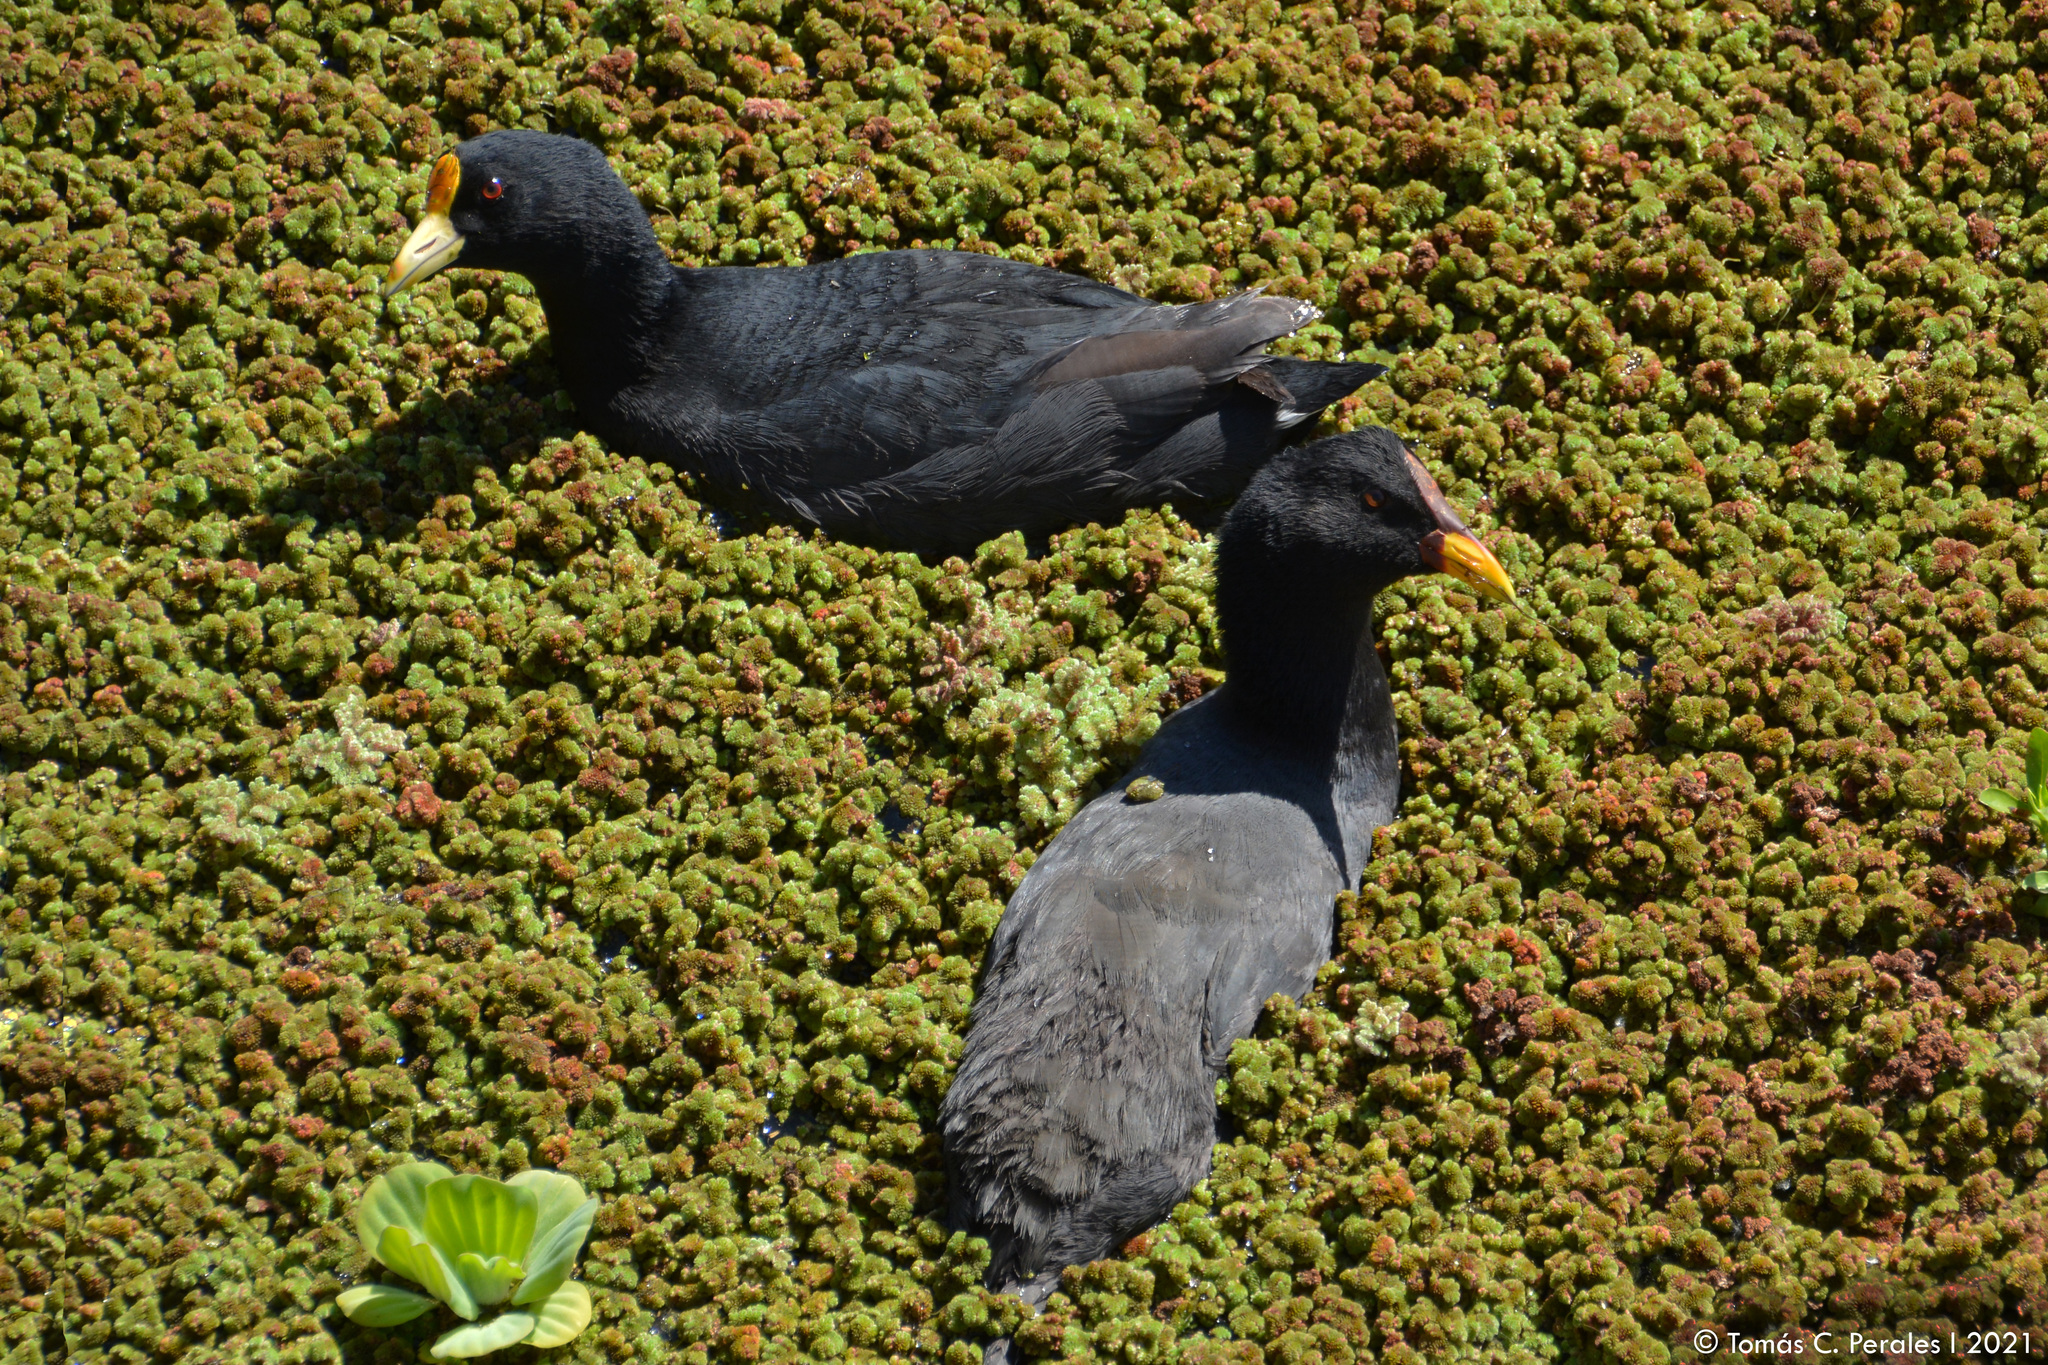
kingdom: Plantae
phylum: Tracheophyta
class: Liliopsida
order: Alismatales
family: Araceae
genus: Pistia
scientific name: Pistia stratiotes
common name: Water lettuce
